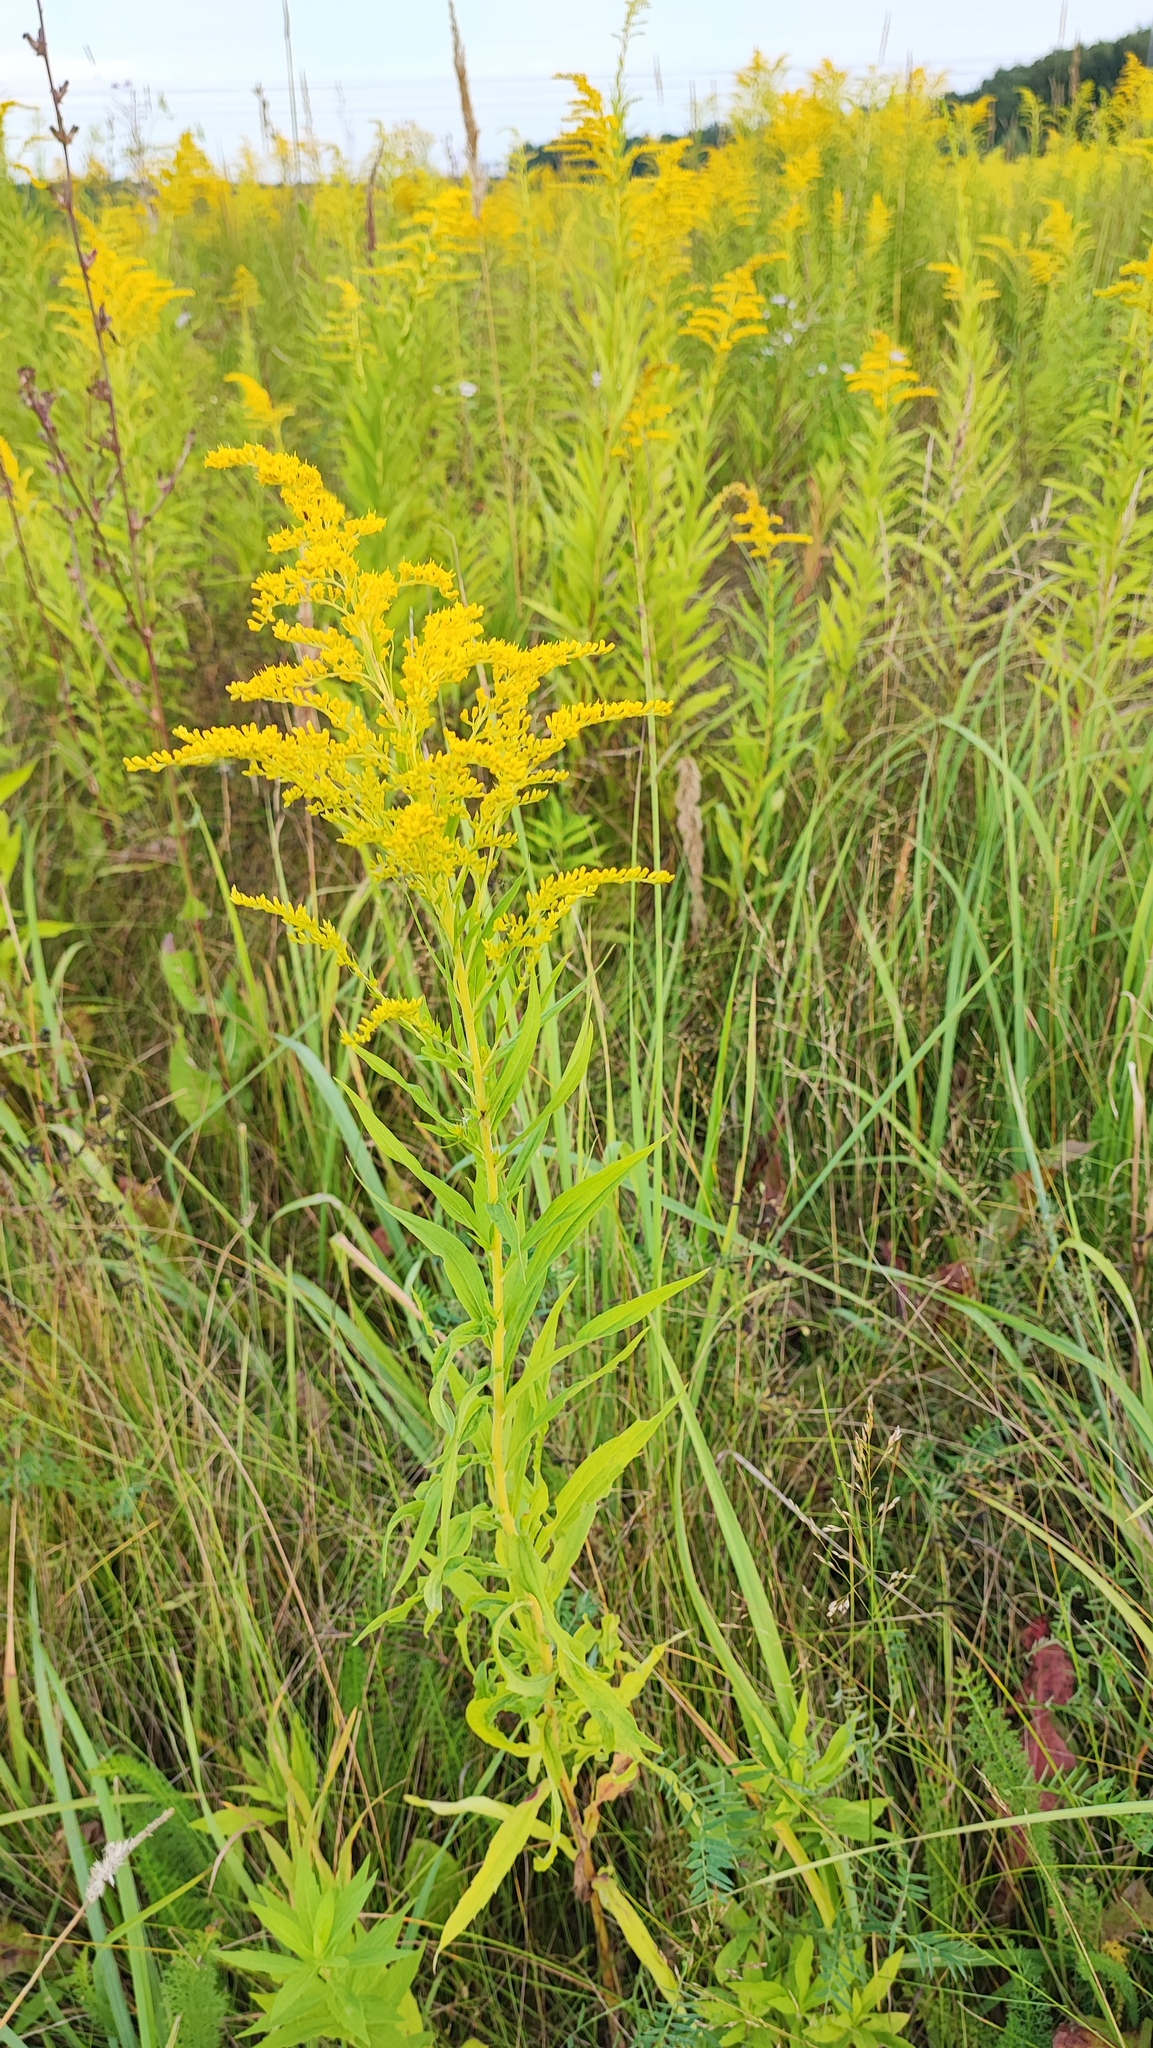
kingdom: Plantae
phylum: Tracheophyta
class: Magnoliopsida
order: Asterales
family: Asteraceae
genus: Solidago
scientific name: Solidago canadensis
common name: Canada goldenrod
